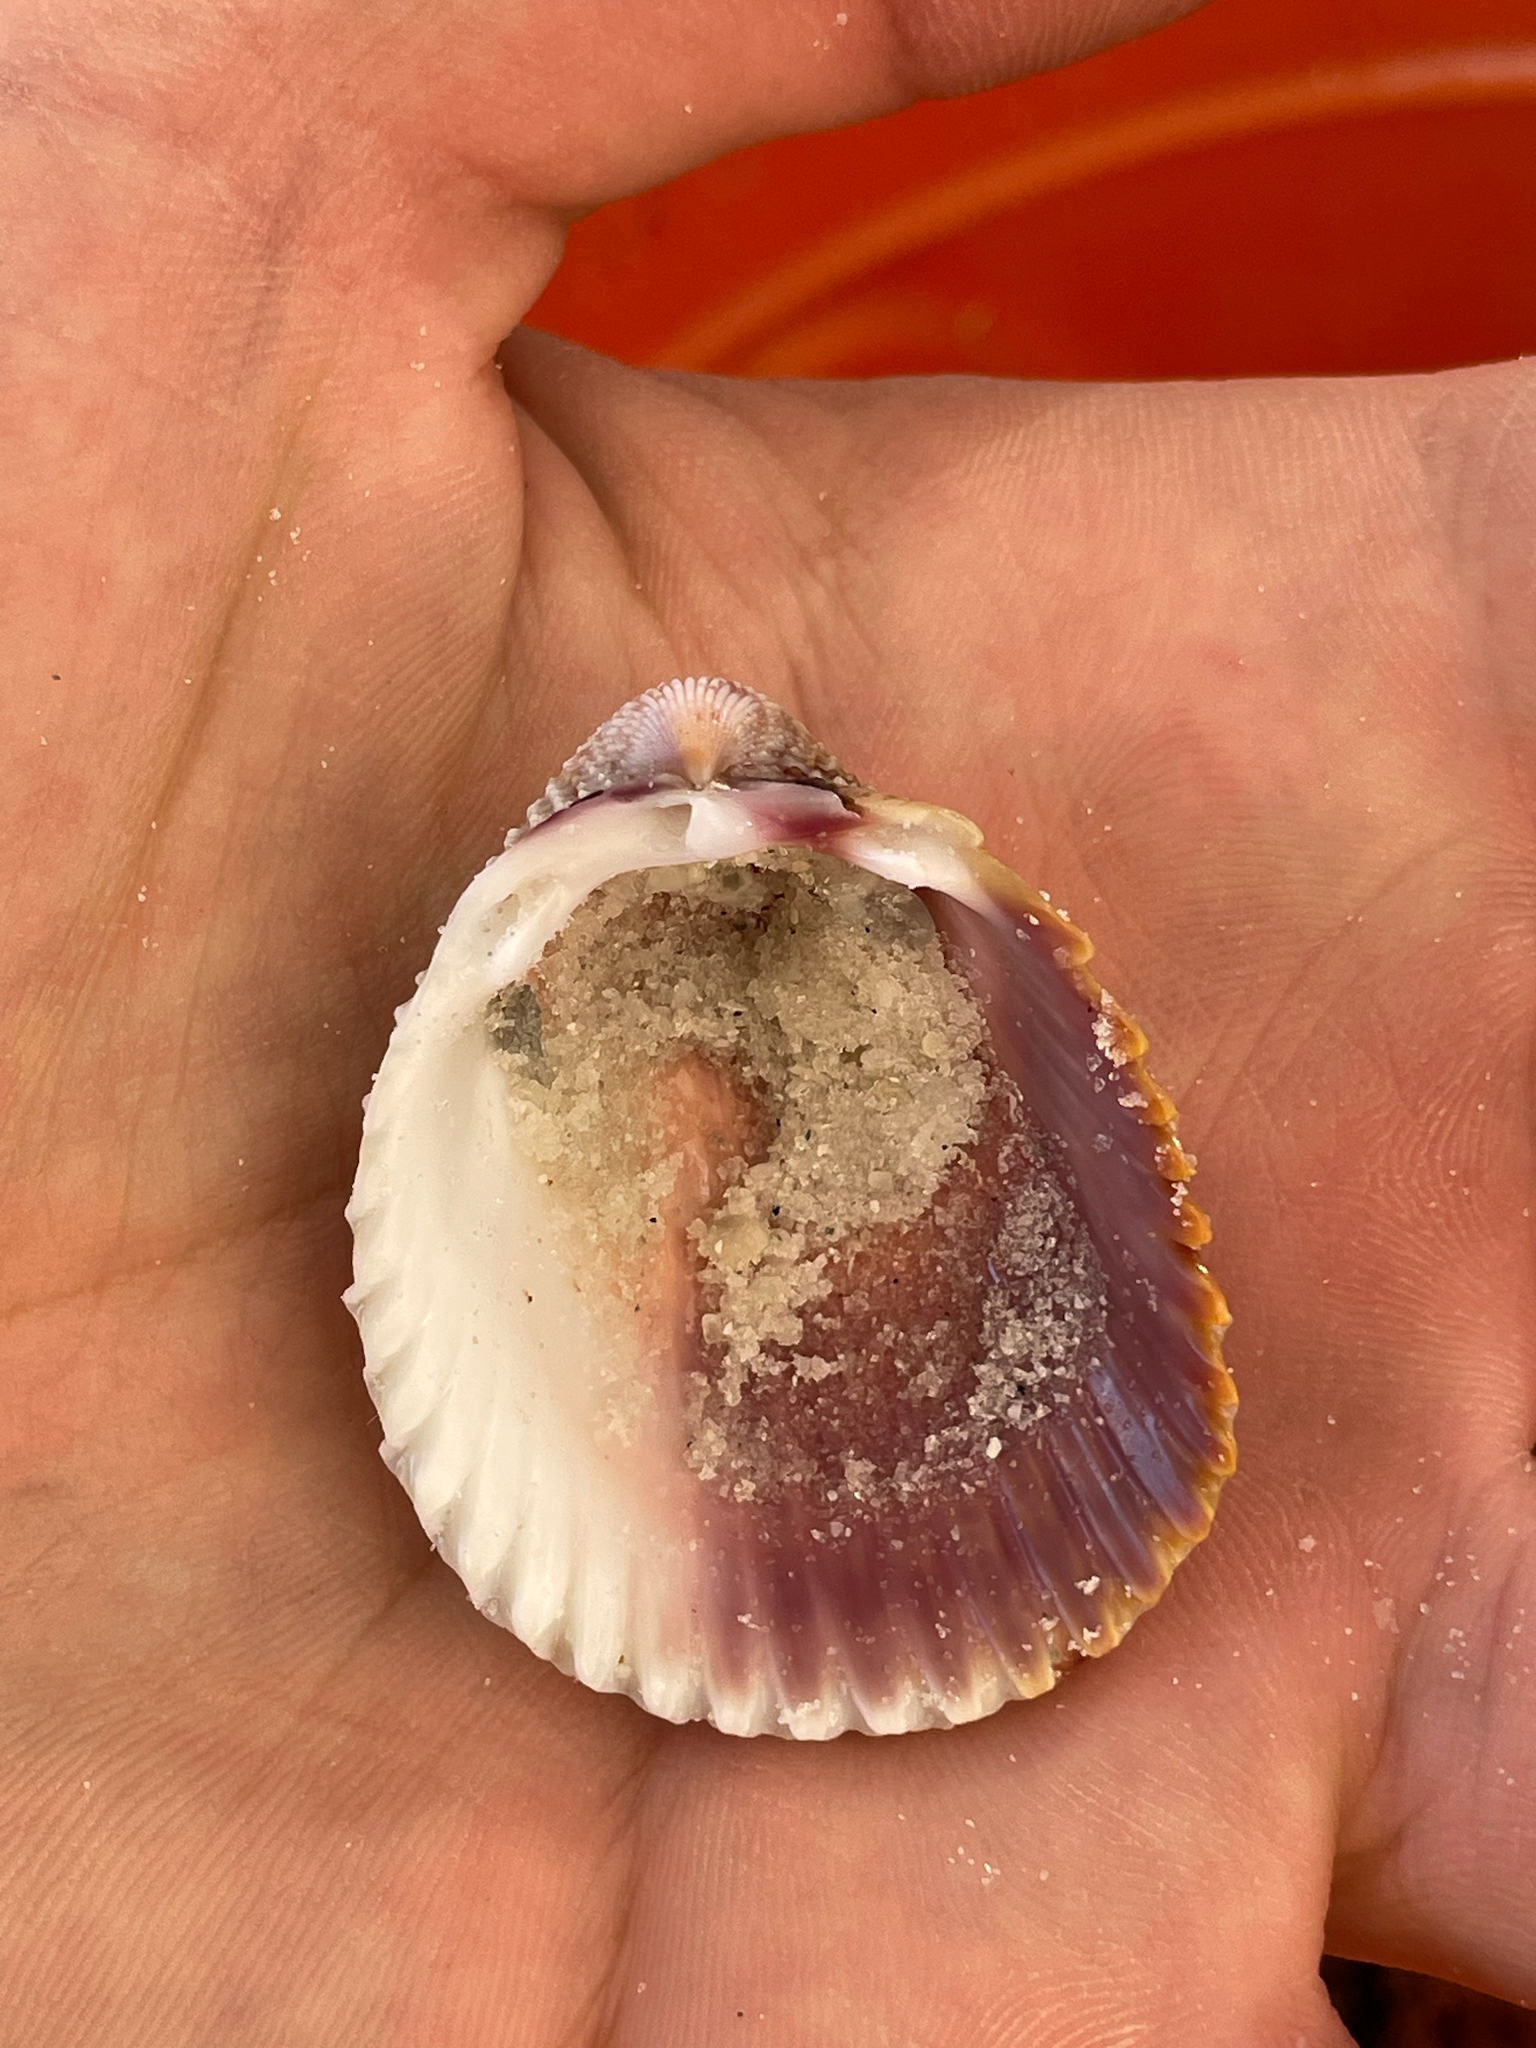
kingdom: Animalia
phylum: Mollusca
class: Bivalvia
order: Cardiida
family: Cardiidae
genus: Trachycardium
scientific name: Trachycardium egmontianum
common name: Florida pricklycockle
